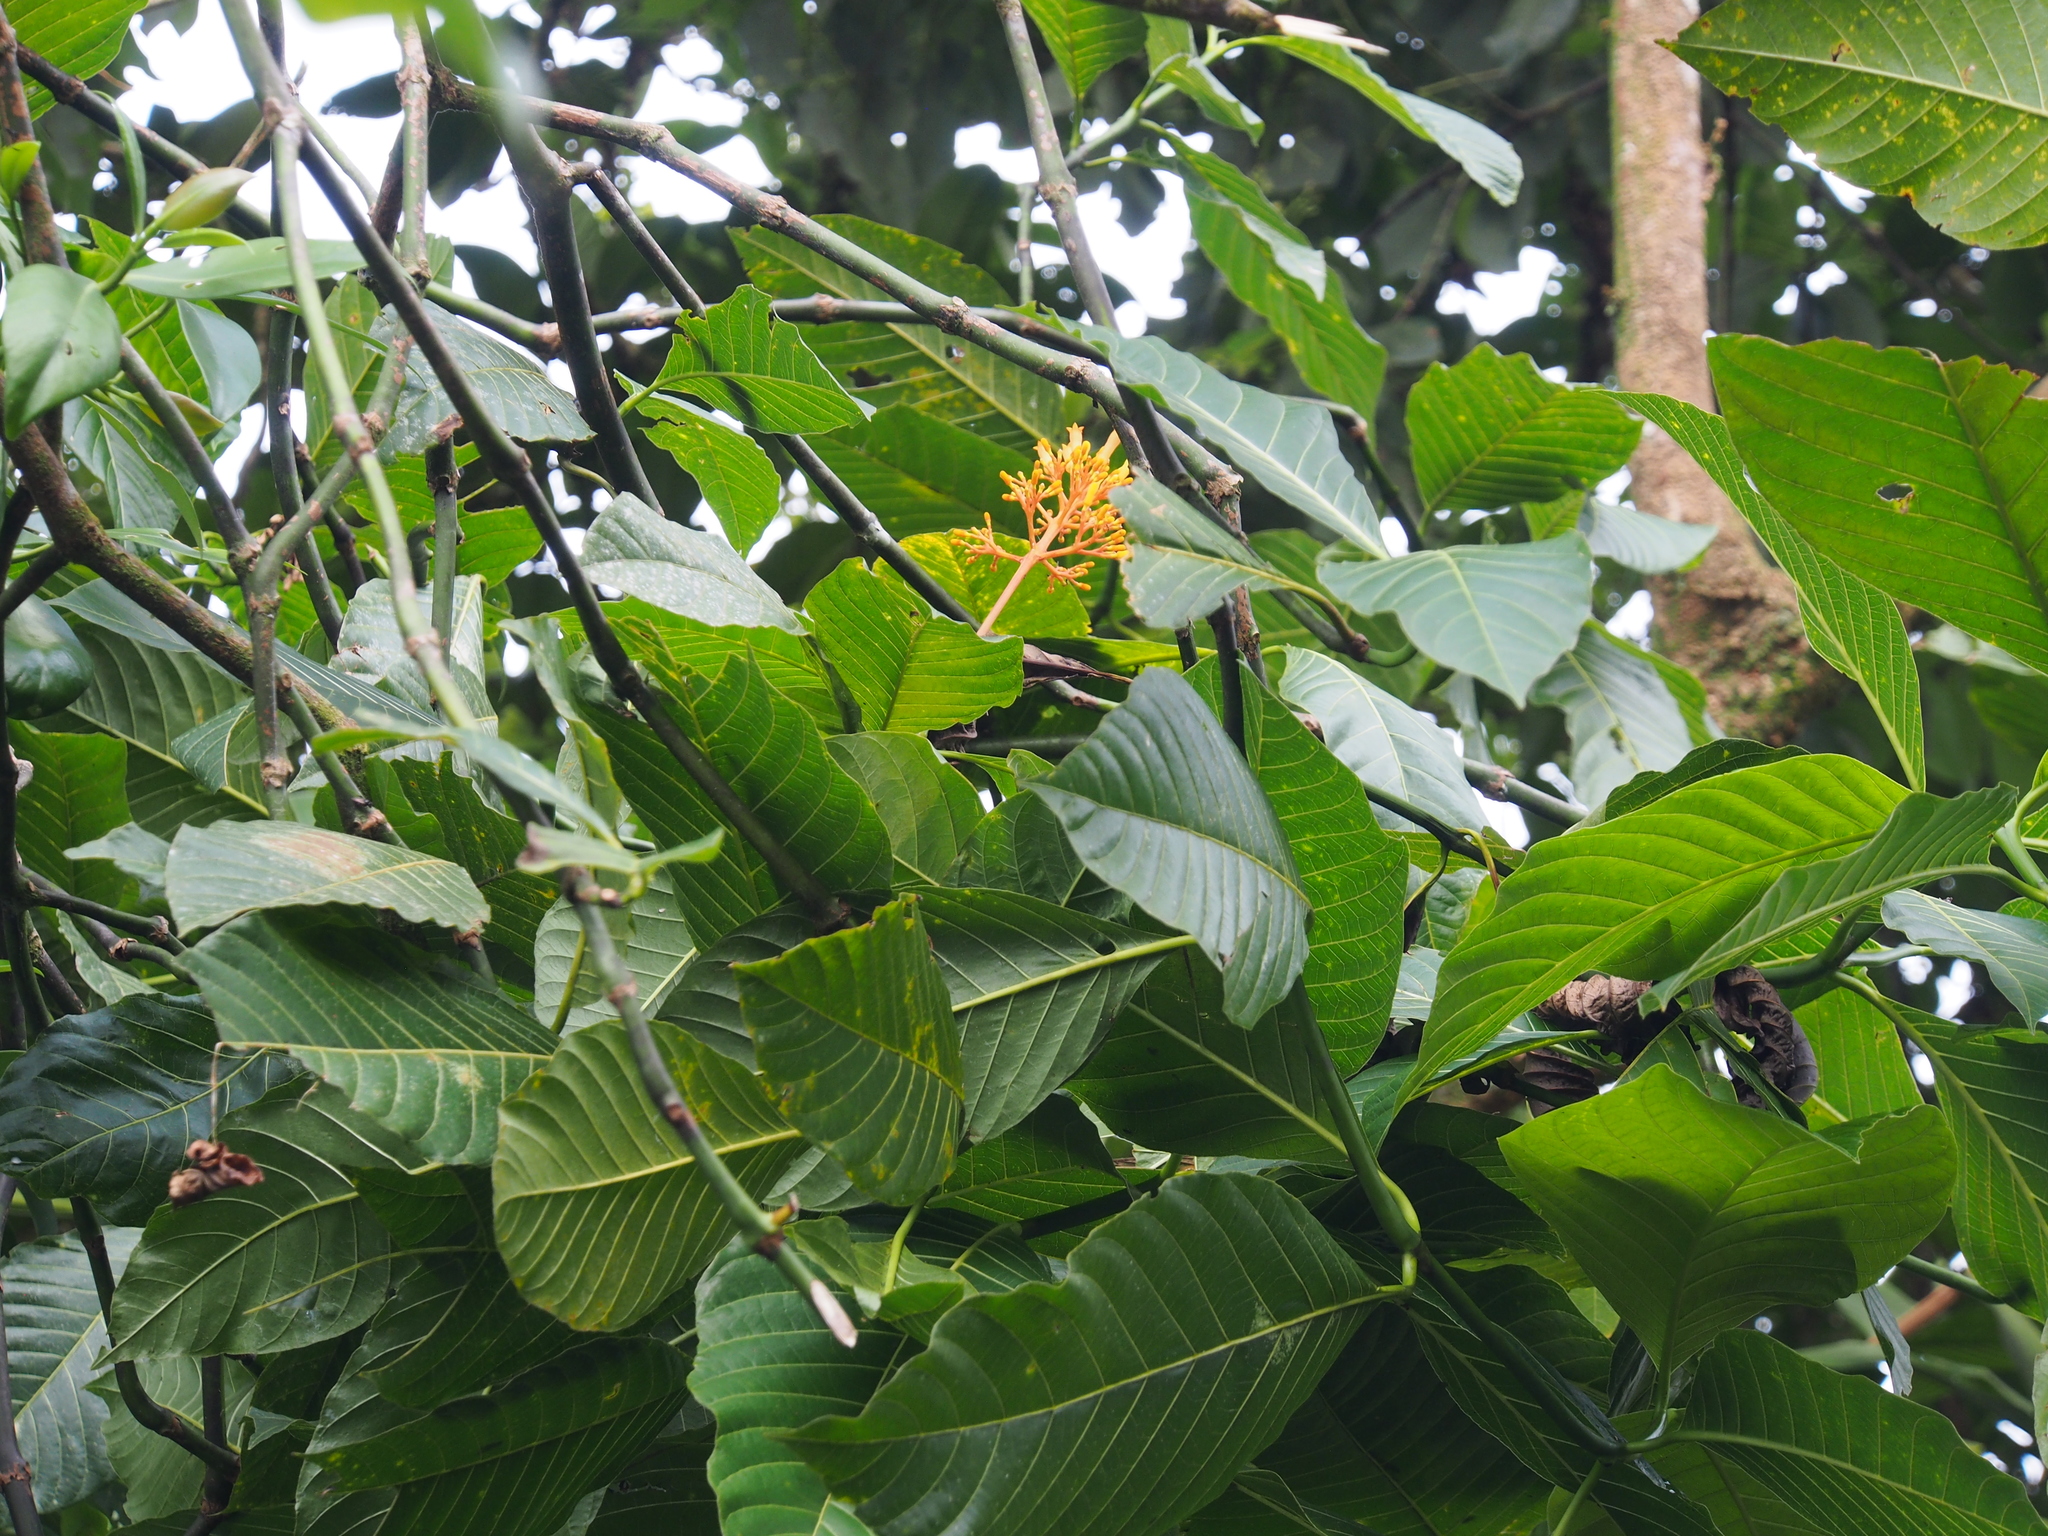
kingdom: Plantae
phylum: Tracheophyta
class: Magnoliopsida
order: Gentianales
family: Rubiaceae
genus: Palicourea
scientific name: Palicourea guianensis
